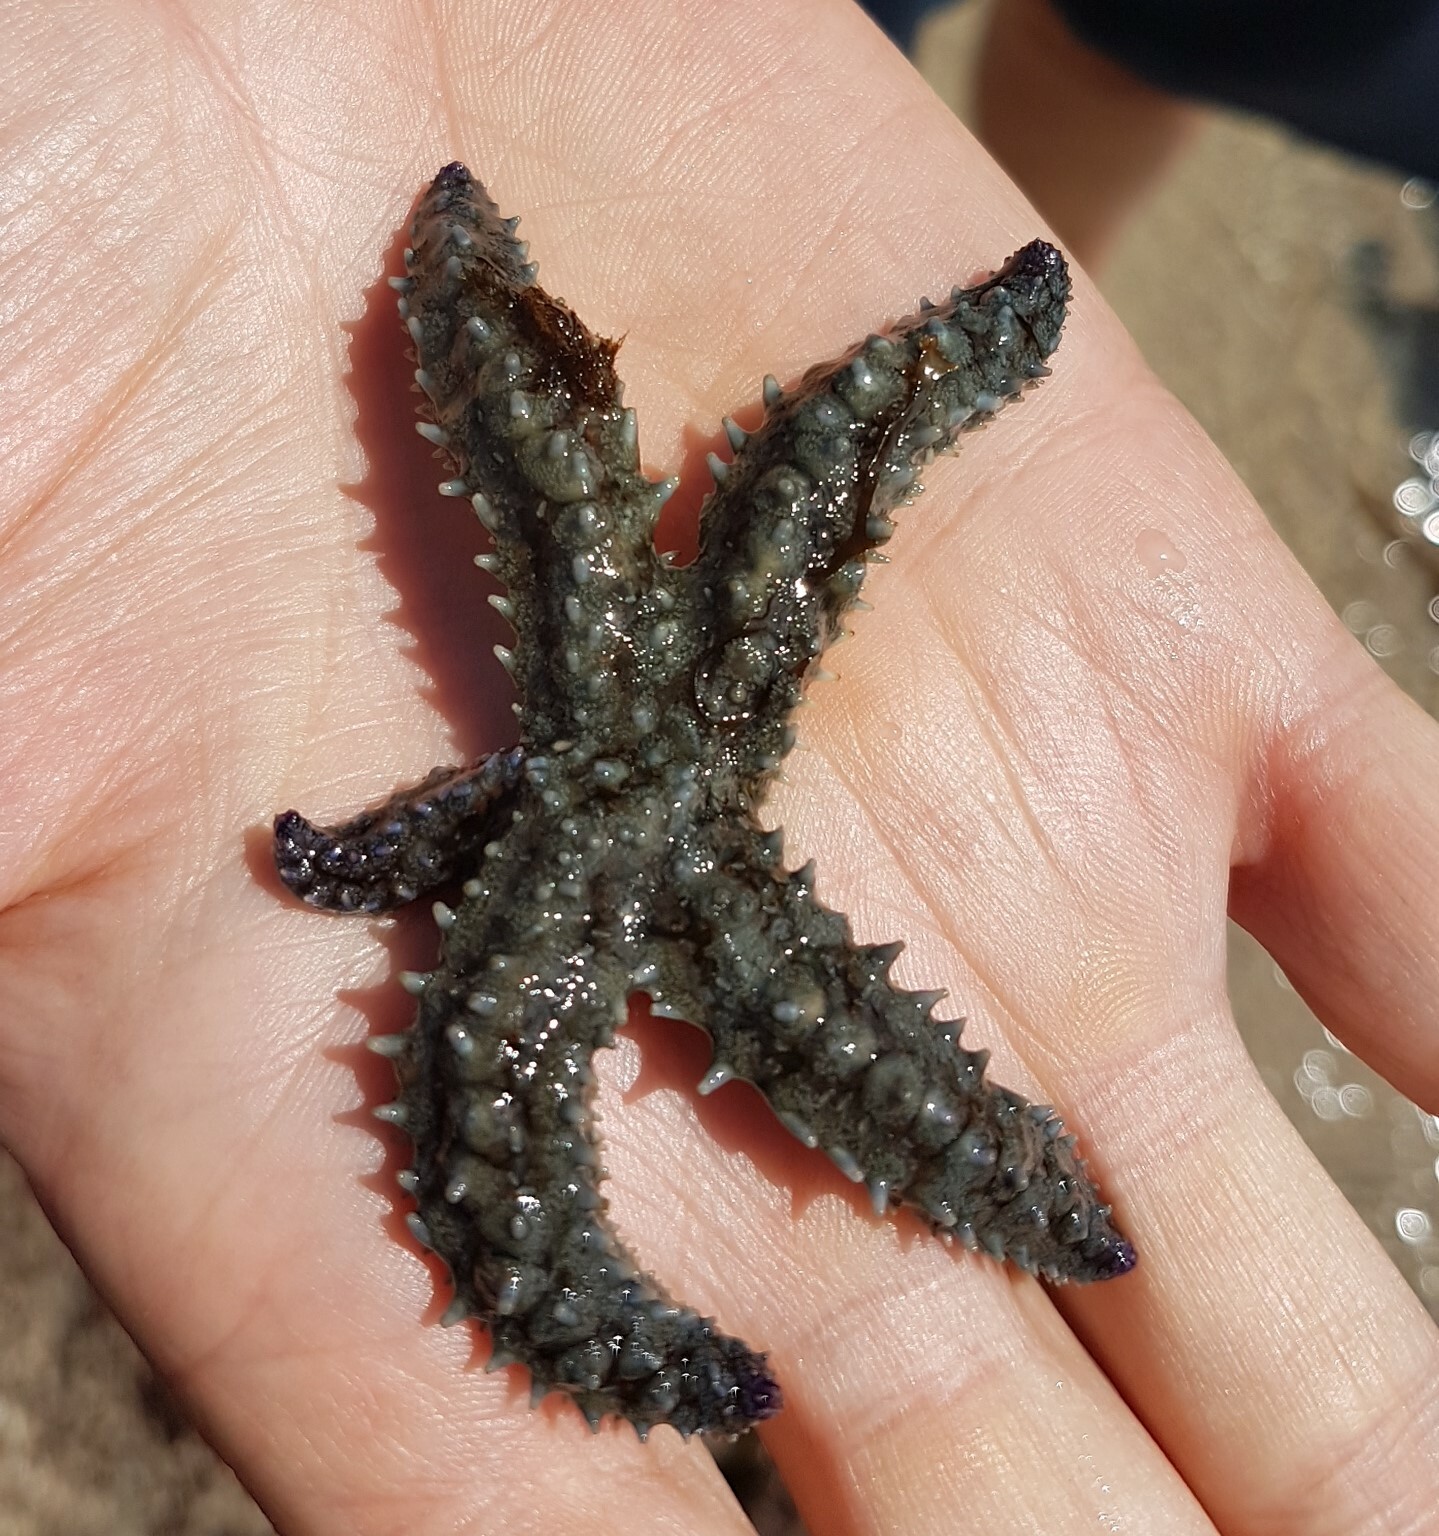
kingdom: Animalia
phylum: Echinodermata
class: Asteroidea
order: Forcipulatida
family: Asteriidae
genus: Marthasterias
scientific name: Marthasterias glacialis
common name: Spiny starfish
